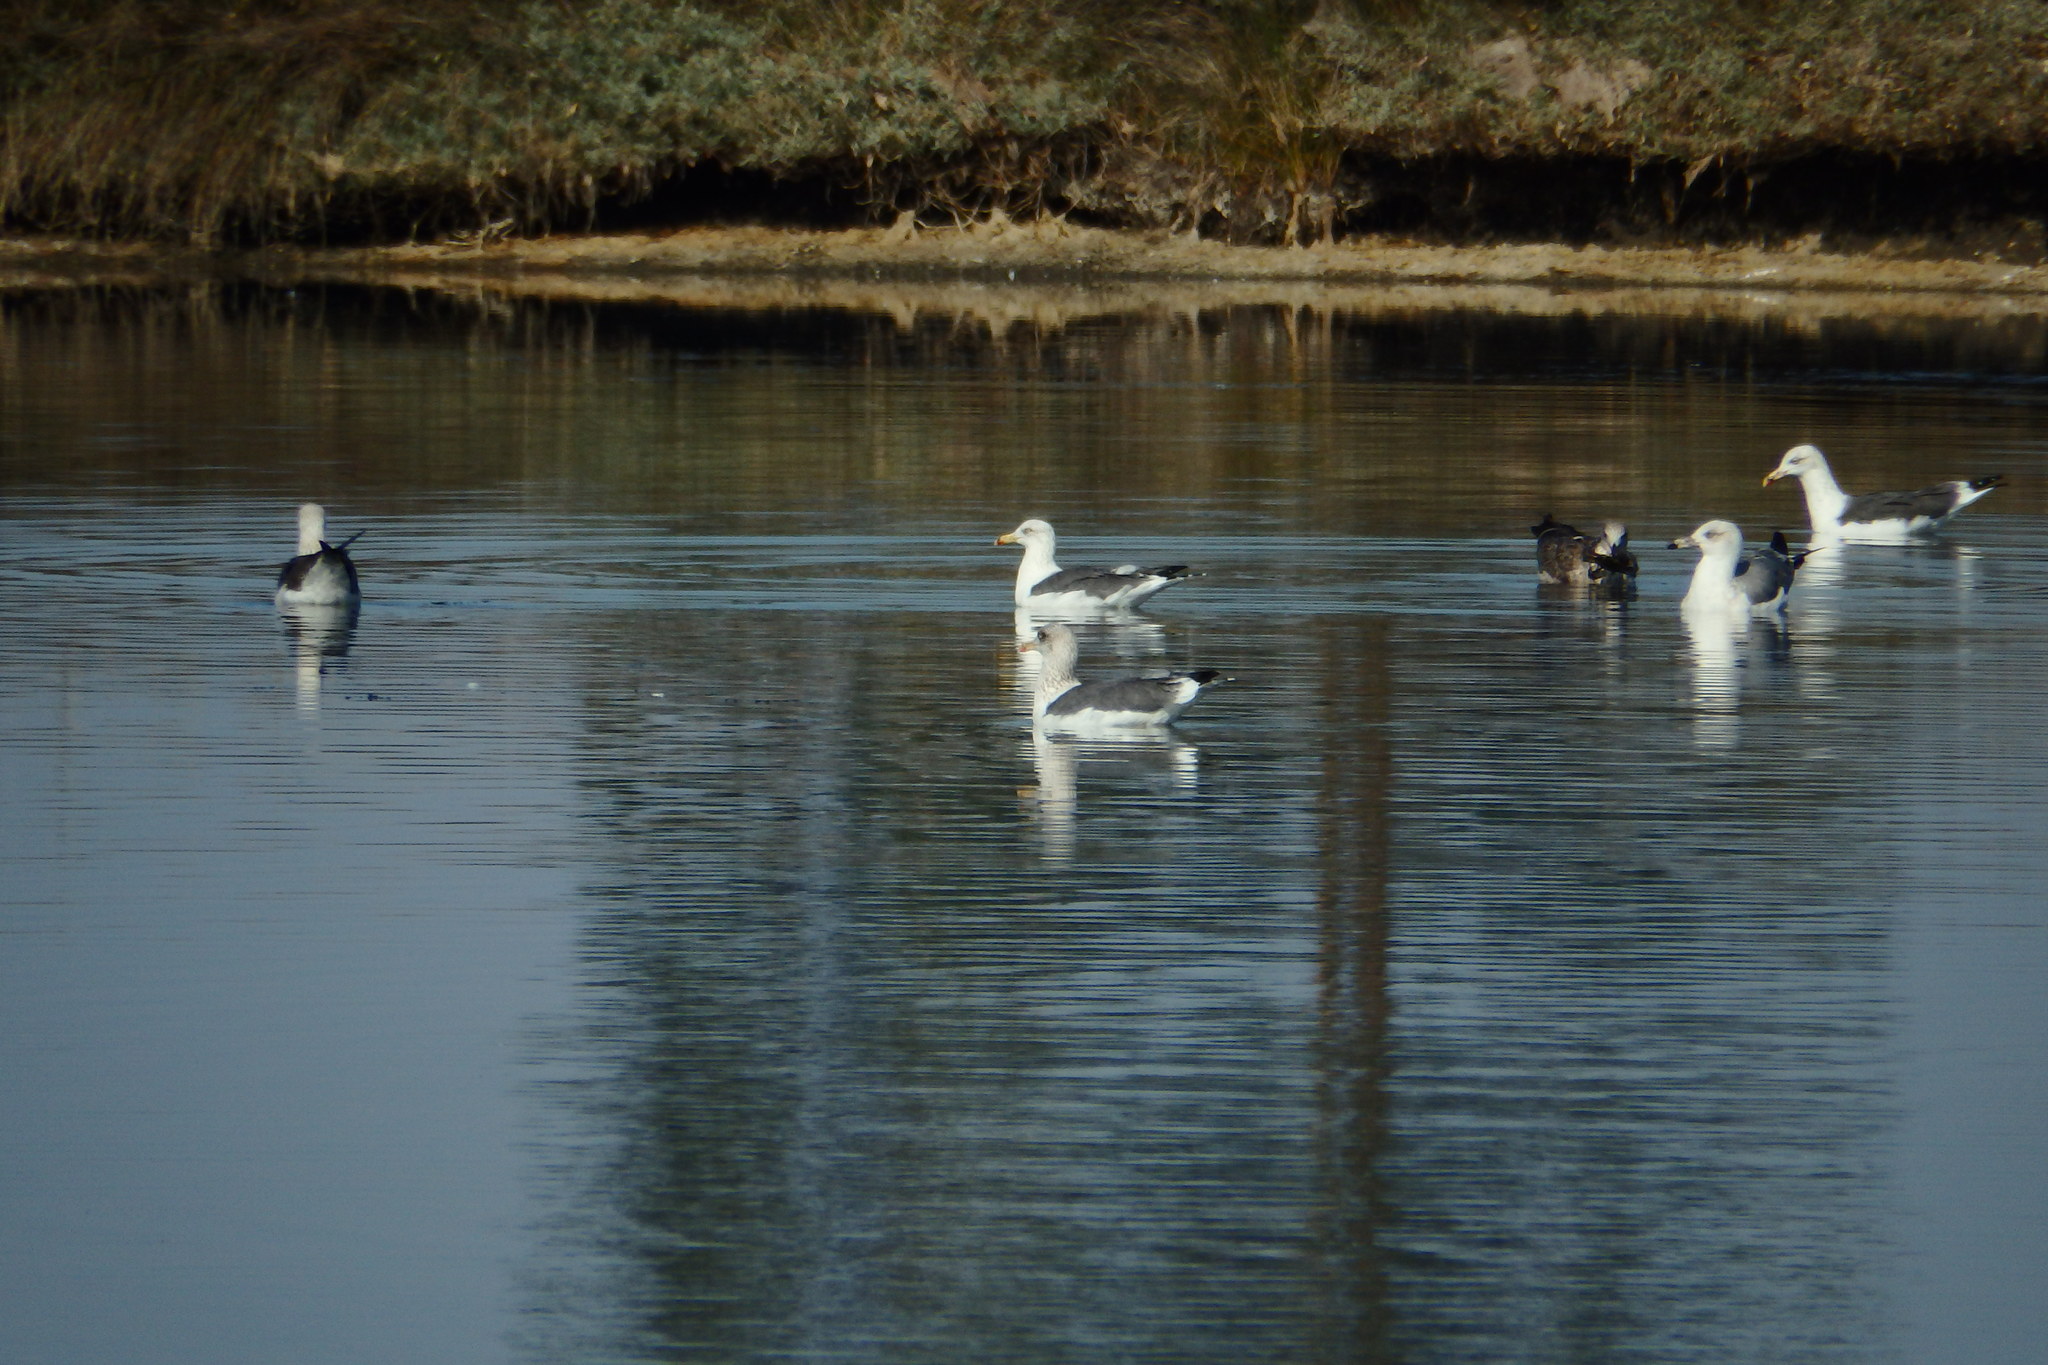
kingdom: Animalia
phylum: Chordata
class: Aves
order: Charadriiformes
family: Laridae
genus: Larus
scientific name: Larus fuscus
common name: Lesser black-backed gull
